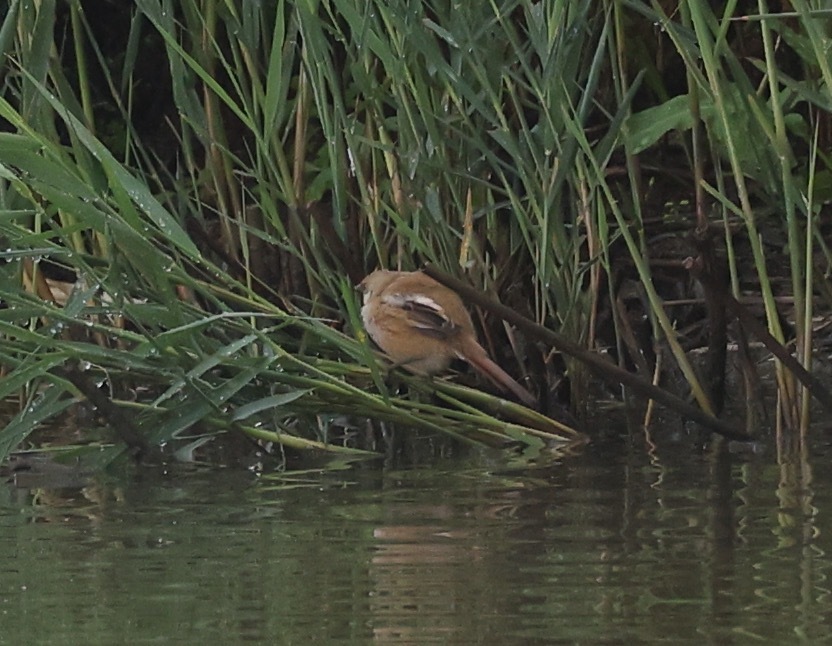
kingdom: Animalia
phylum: Chordata
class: Aves
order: Passeriformes
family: Panuridae
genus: Panurus
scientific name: Panurus biarmicus
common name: Bearded reedling
